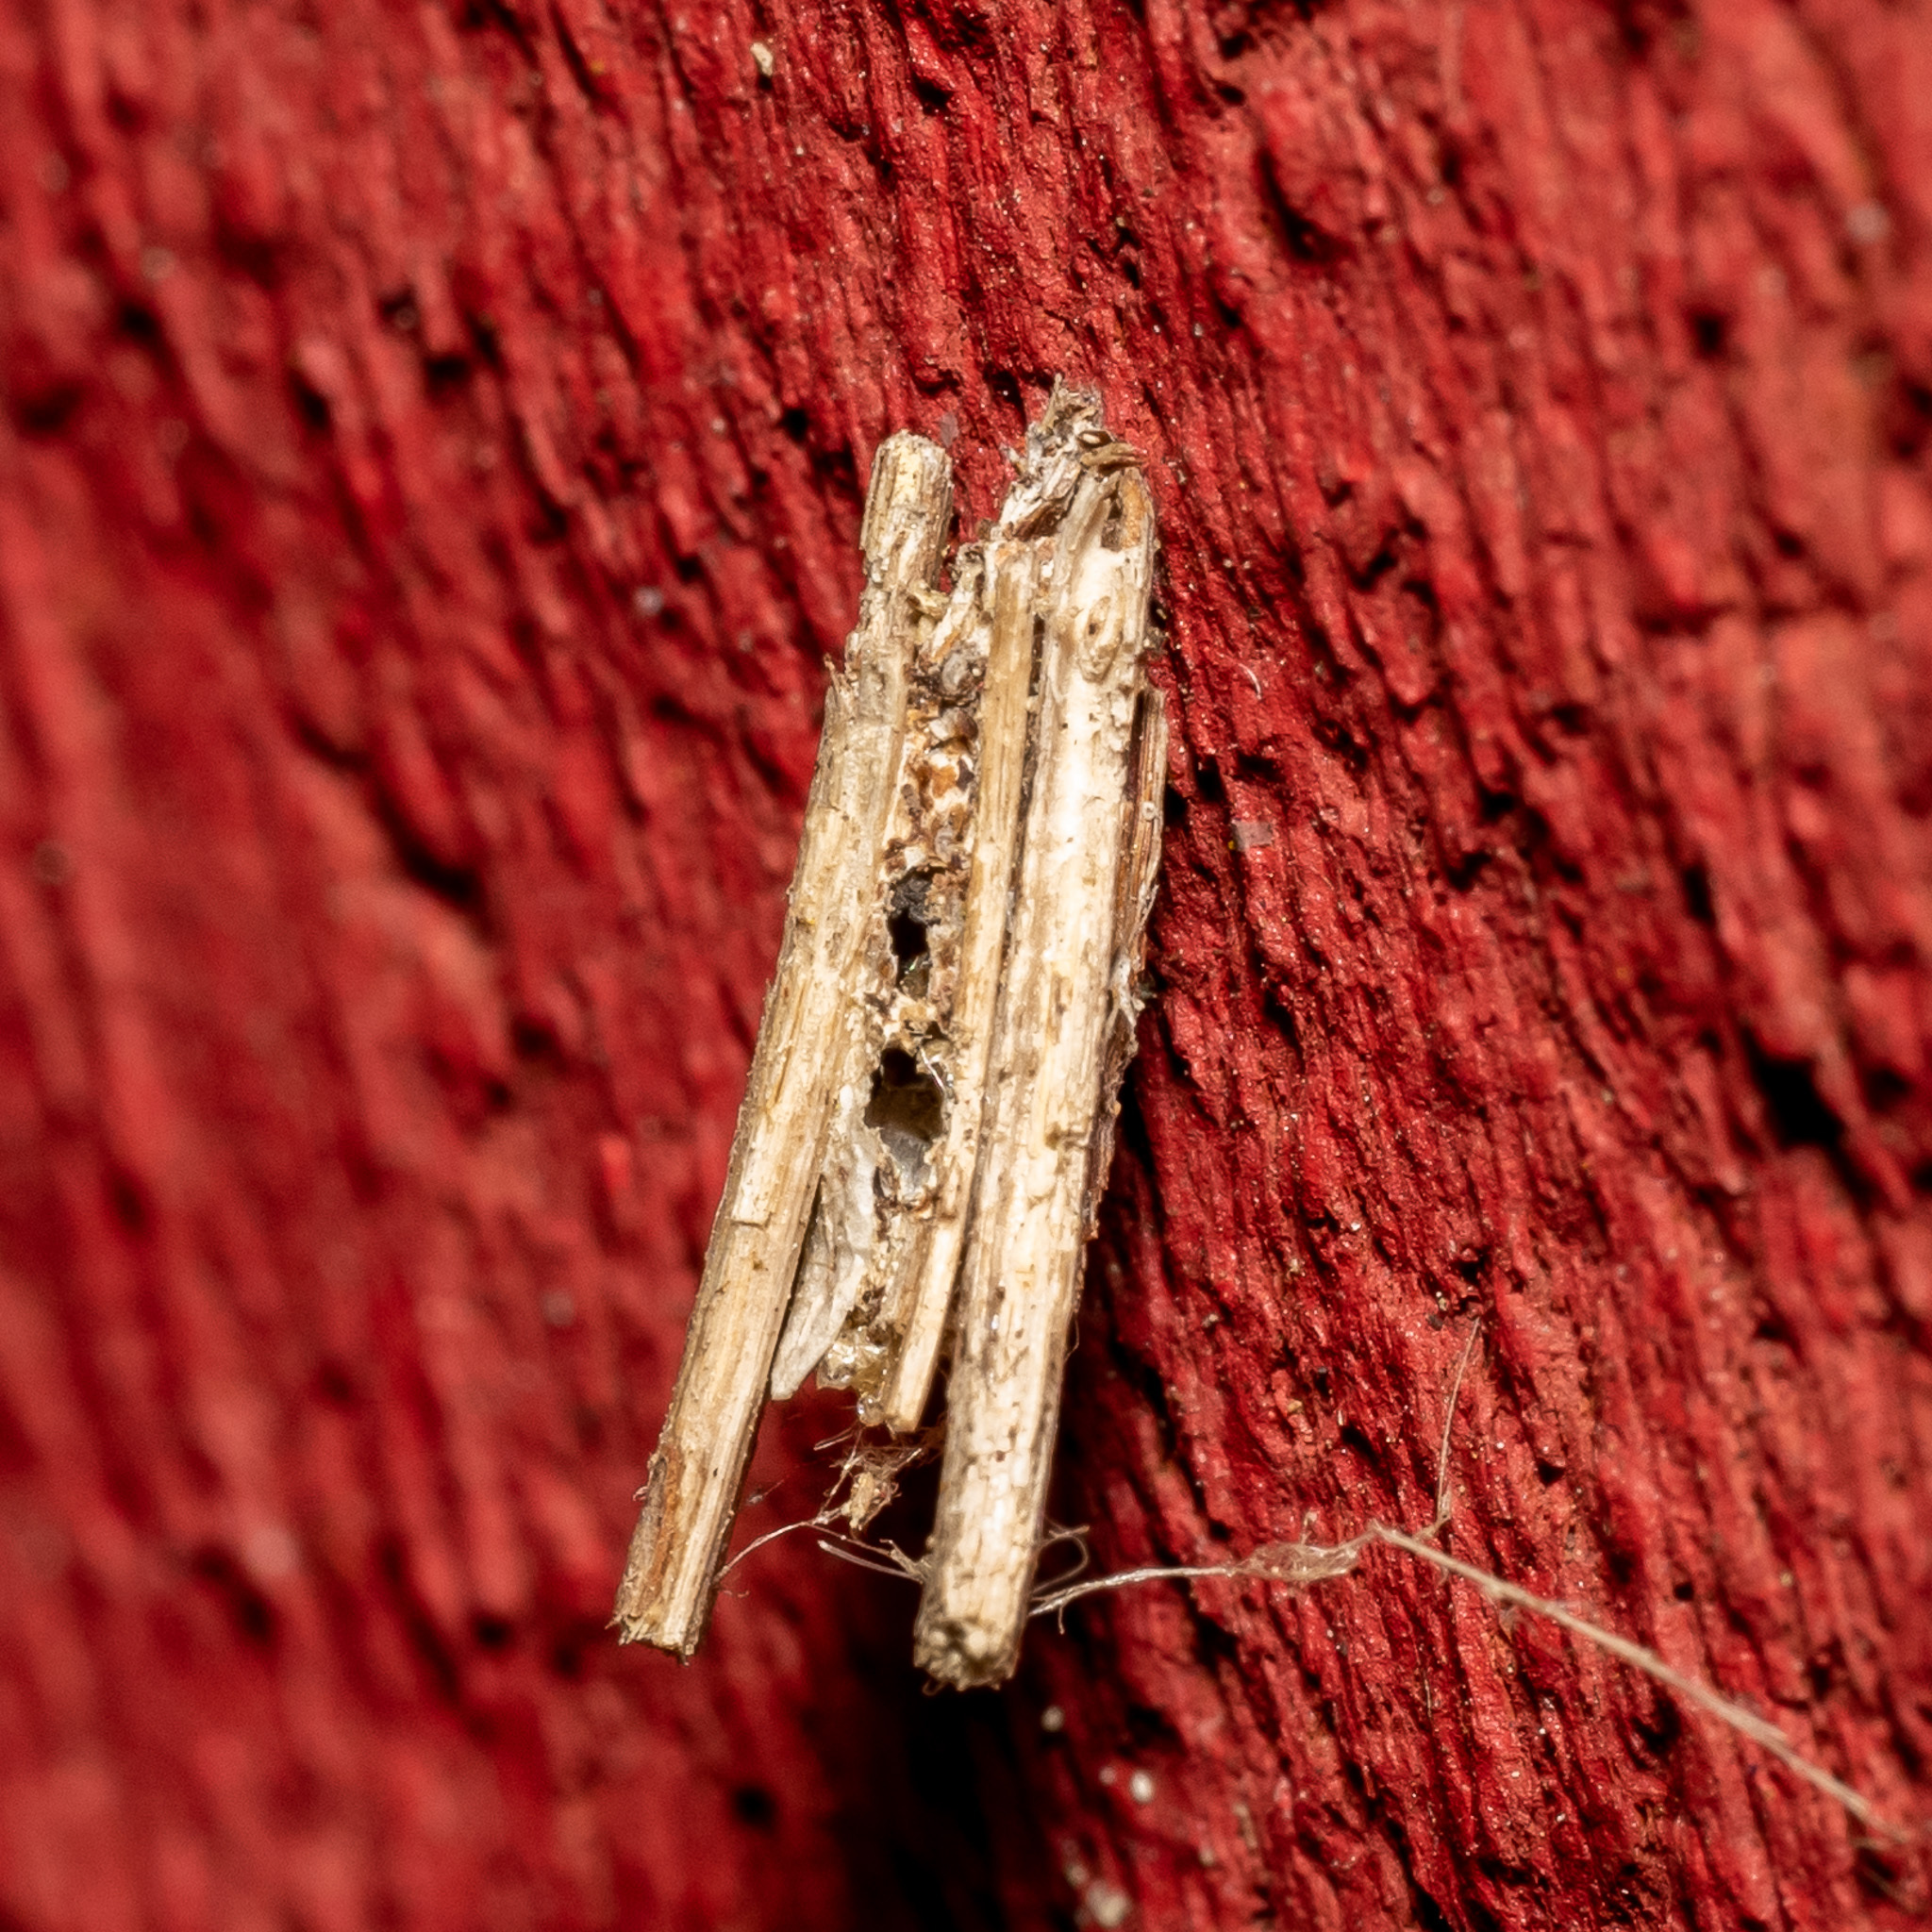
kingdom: Animalia
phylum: Arthropoda
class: Insecta
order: Lepidoptera
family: Psychidae
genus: Psyche
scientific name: Psyche casta
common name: Common sweep
